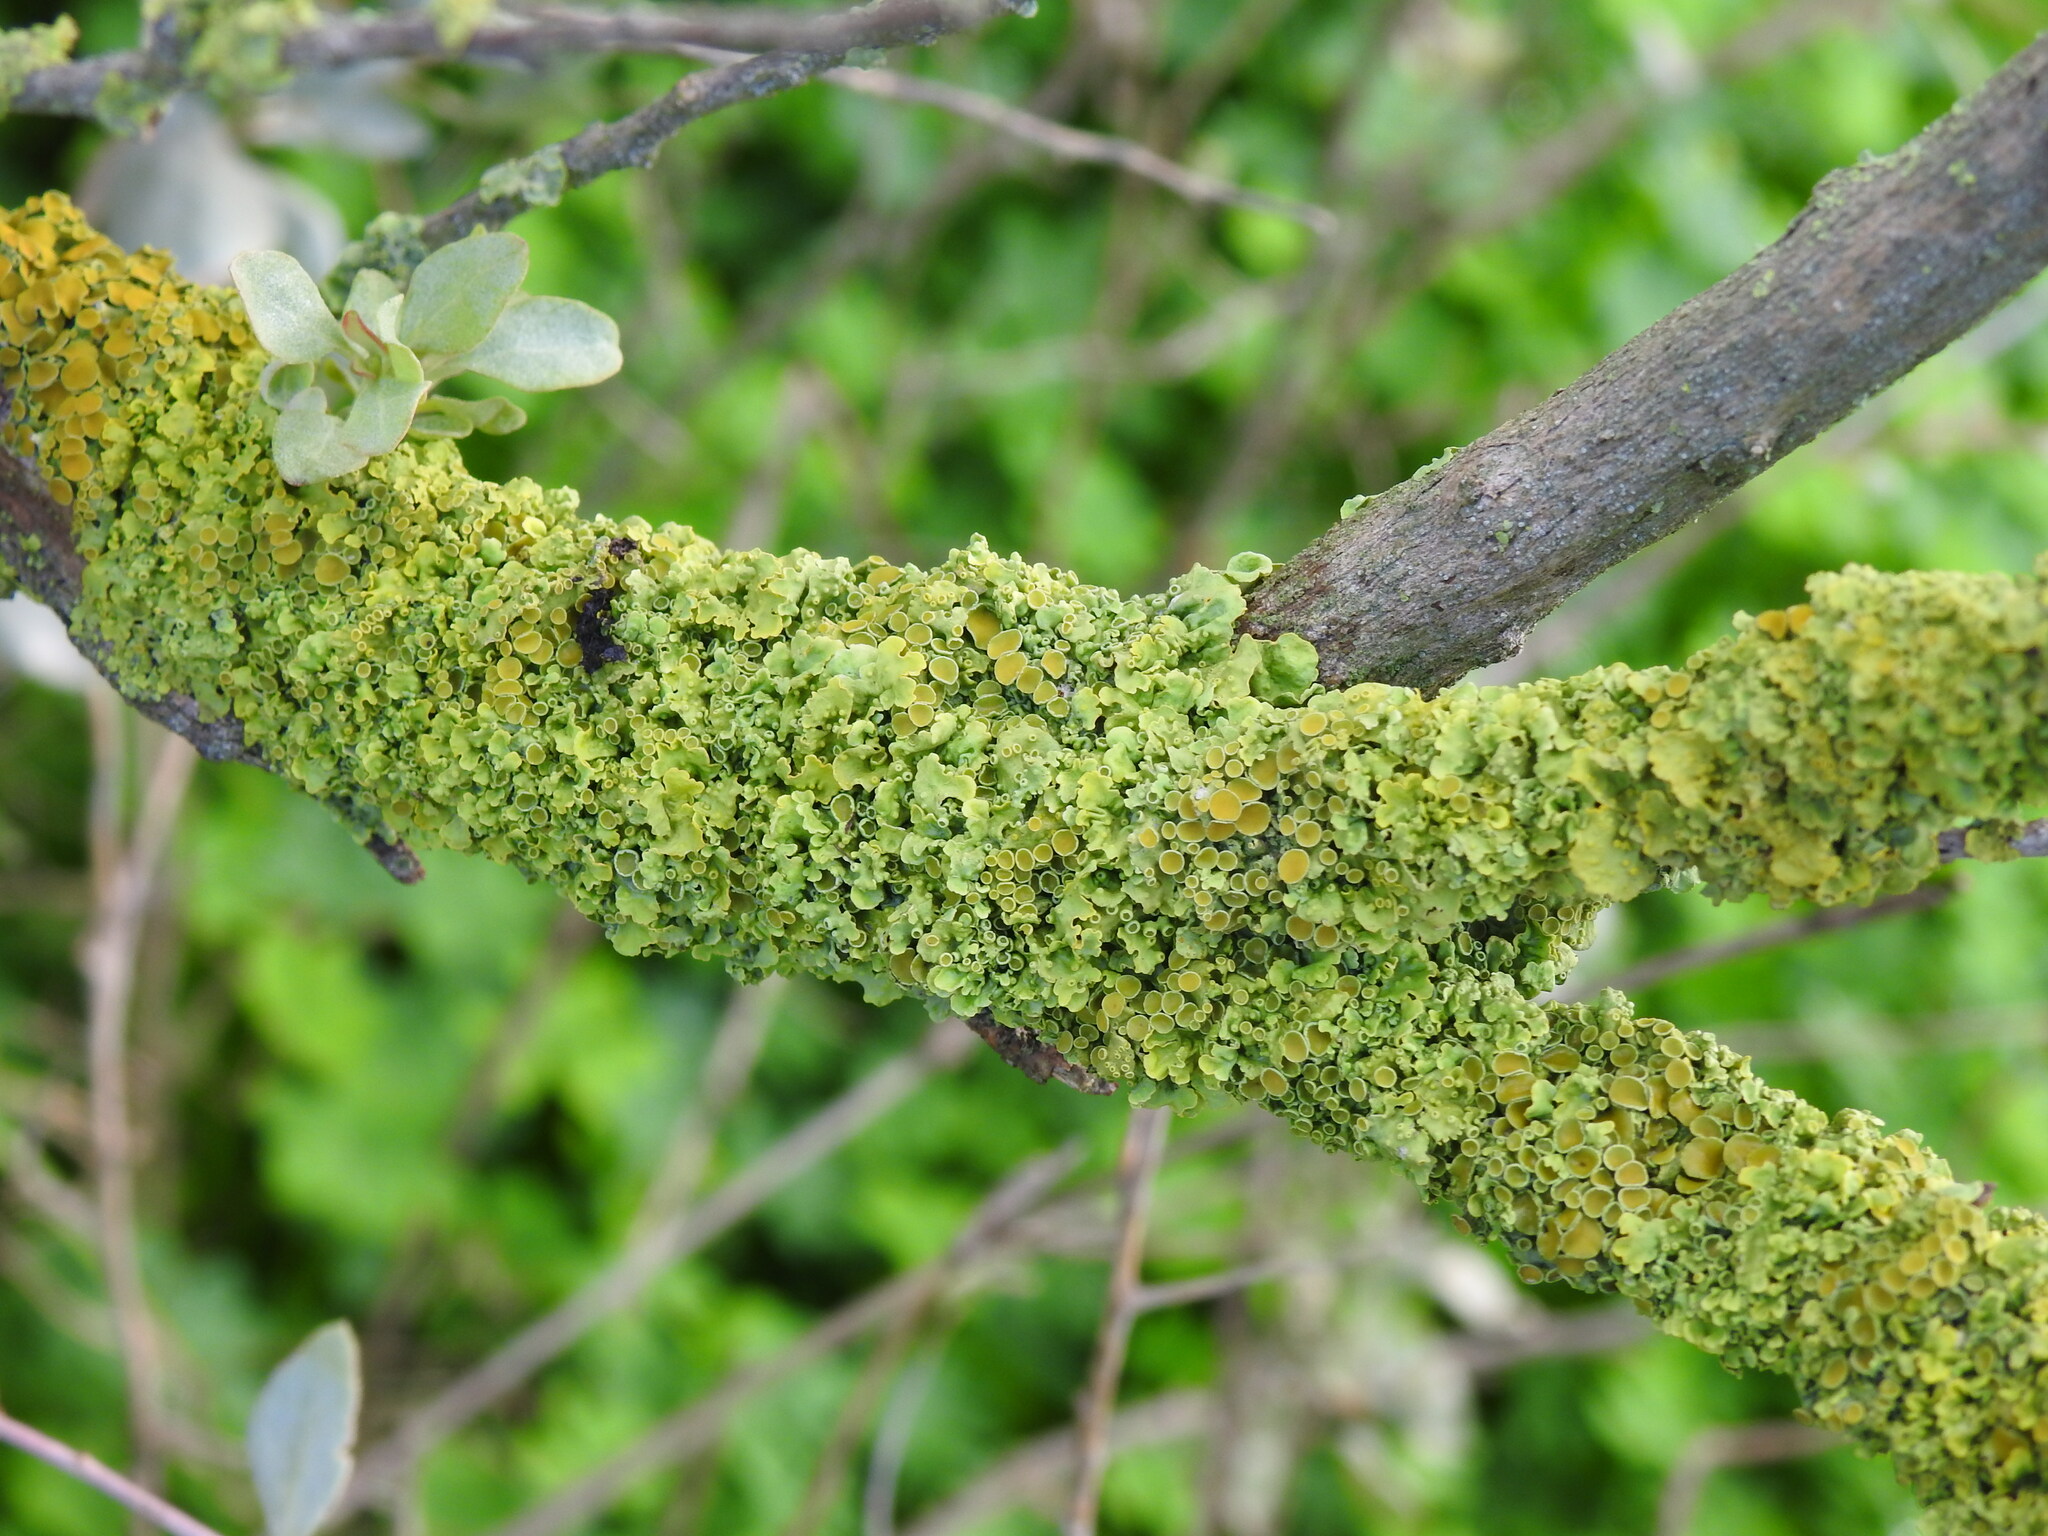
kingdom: Fungi
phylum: Ascomycota
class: Lecanoromycetes
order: Teloschistales
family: Teloschistaceae
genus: Xanthoria
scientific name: Xanthoria parietina
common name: Common orange lichen
